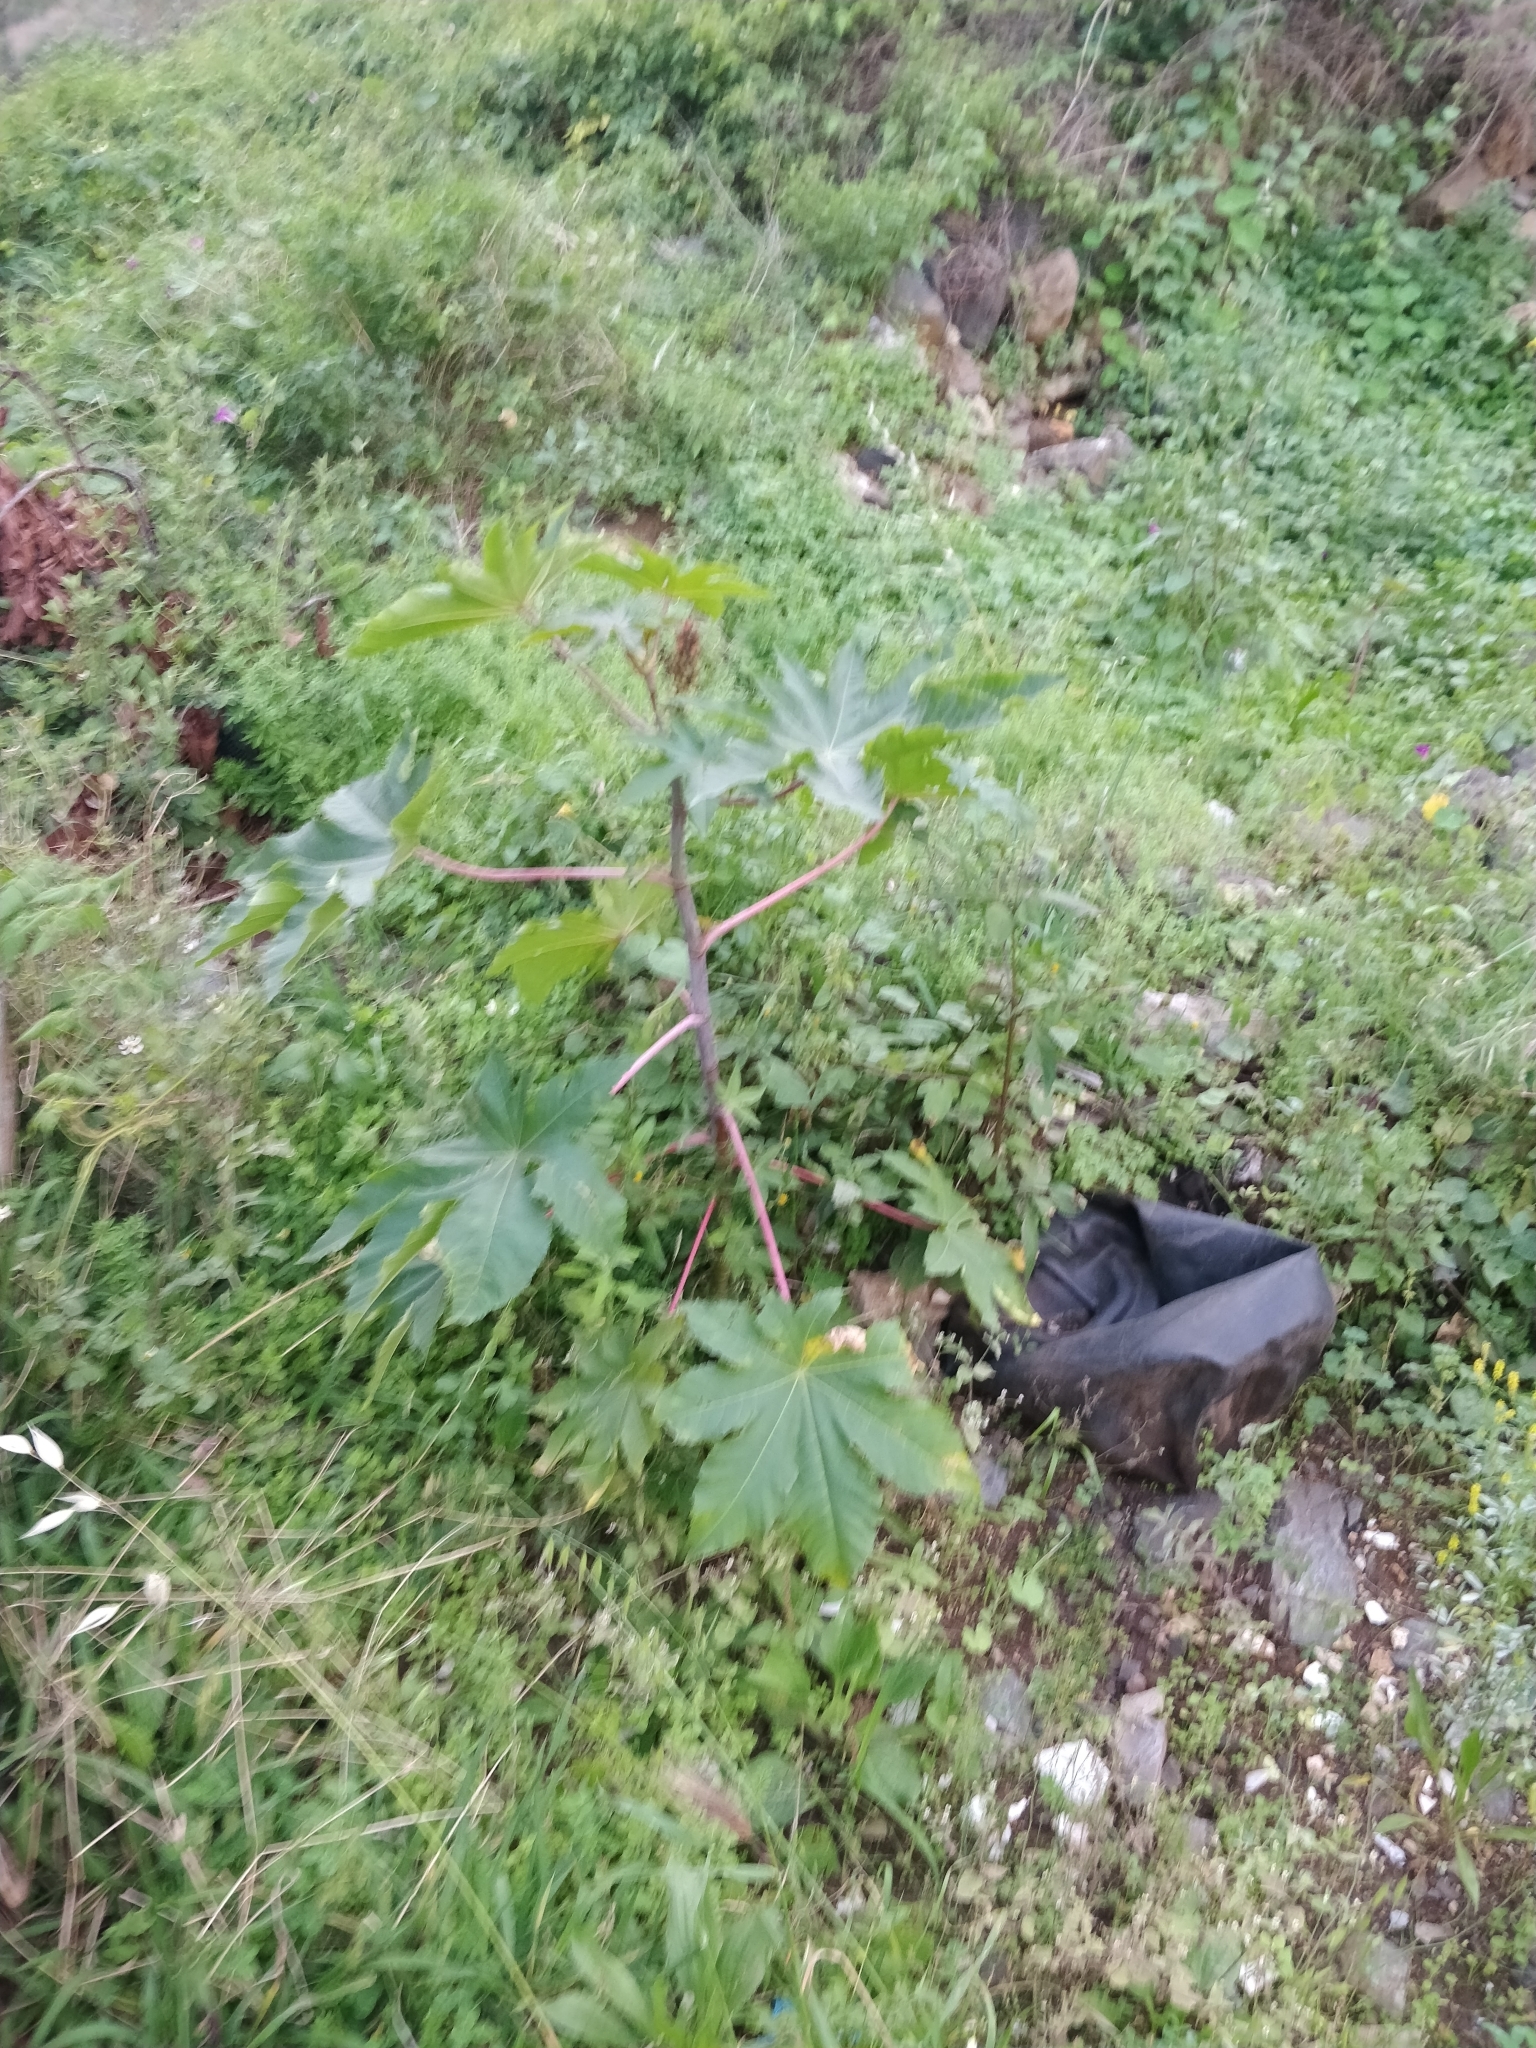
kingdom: Plantae
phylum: Tracheophyta
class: Magnoliopsida
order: Malpighiales
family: Euphorbiaceae
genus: Ricinus
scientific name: Ricinus communis
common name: Castor-oil-plant
